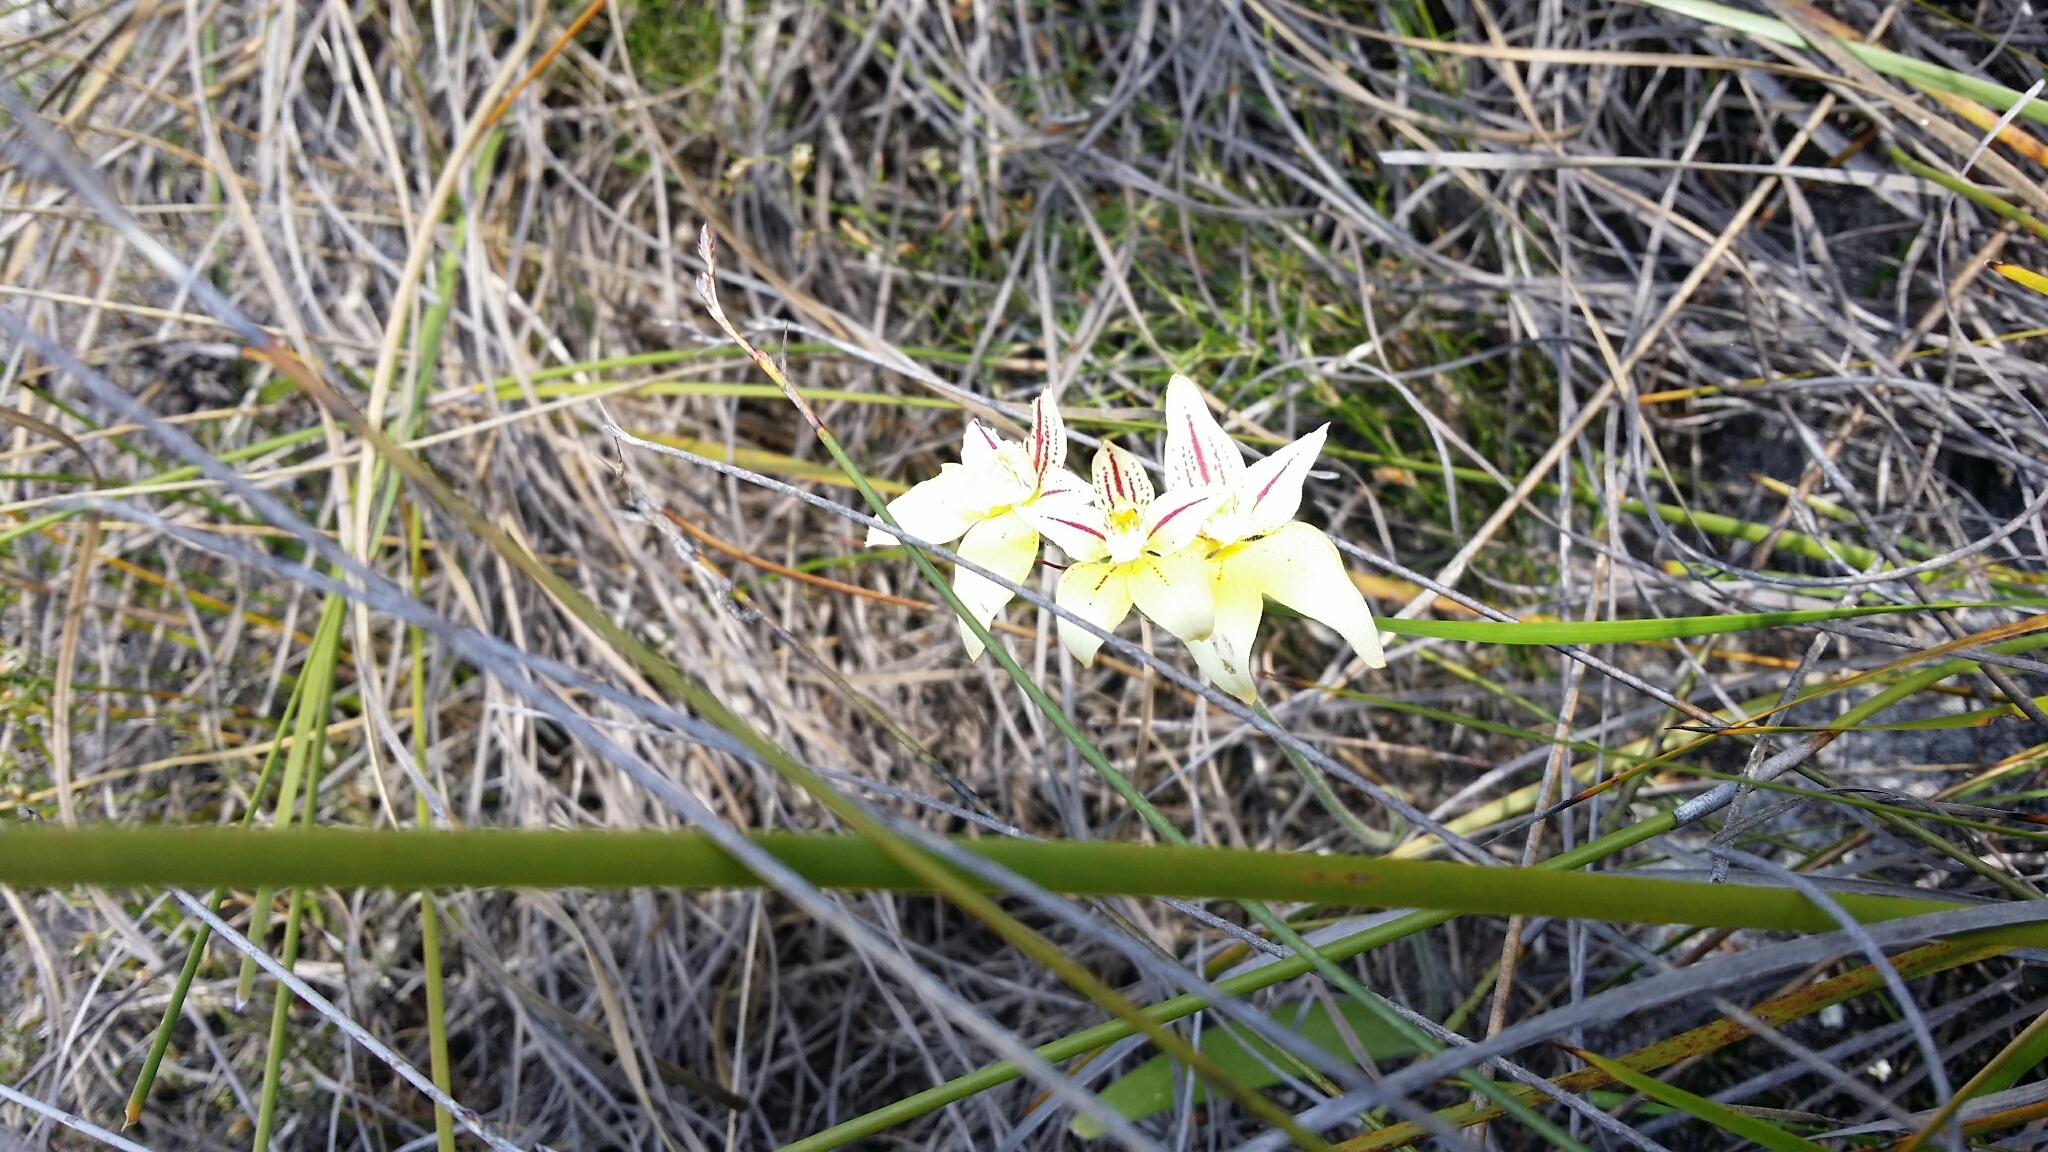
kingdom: Plantae
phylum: Tracheophyta
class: Liliopsida
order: Asparagales
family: Orchidaceae
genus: Caladenia
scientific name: Caladenia flava
